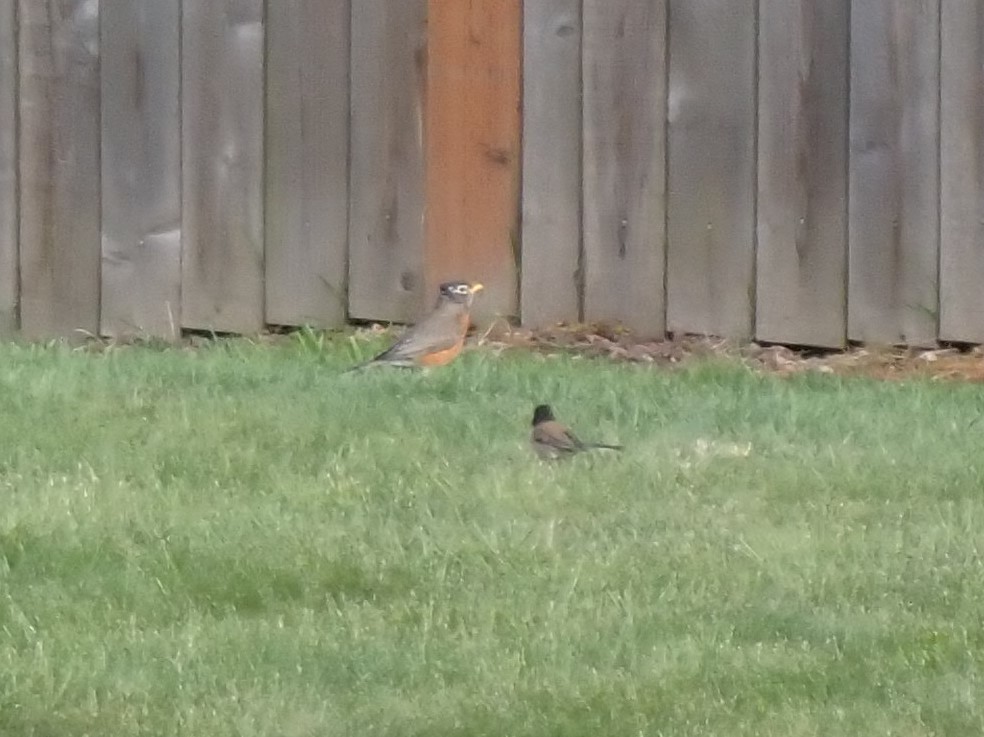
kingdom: Animalia
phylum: Chordata
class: Aves
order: Passeriformes
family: Turdidae
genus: Turdus
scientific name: Turdus migratorius
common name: American robin
